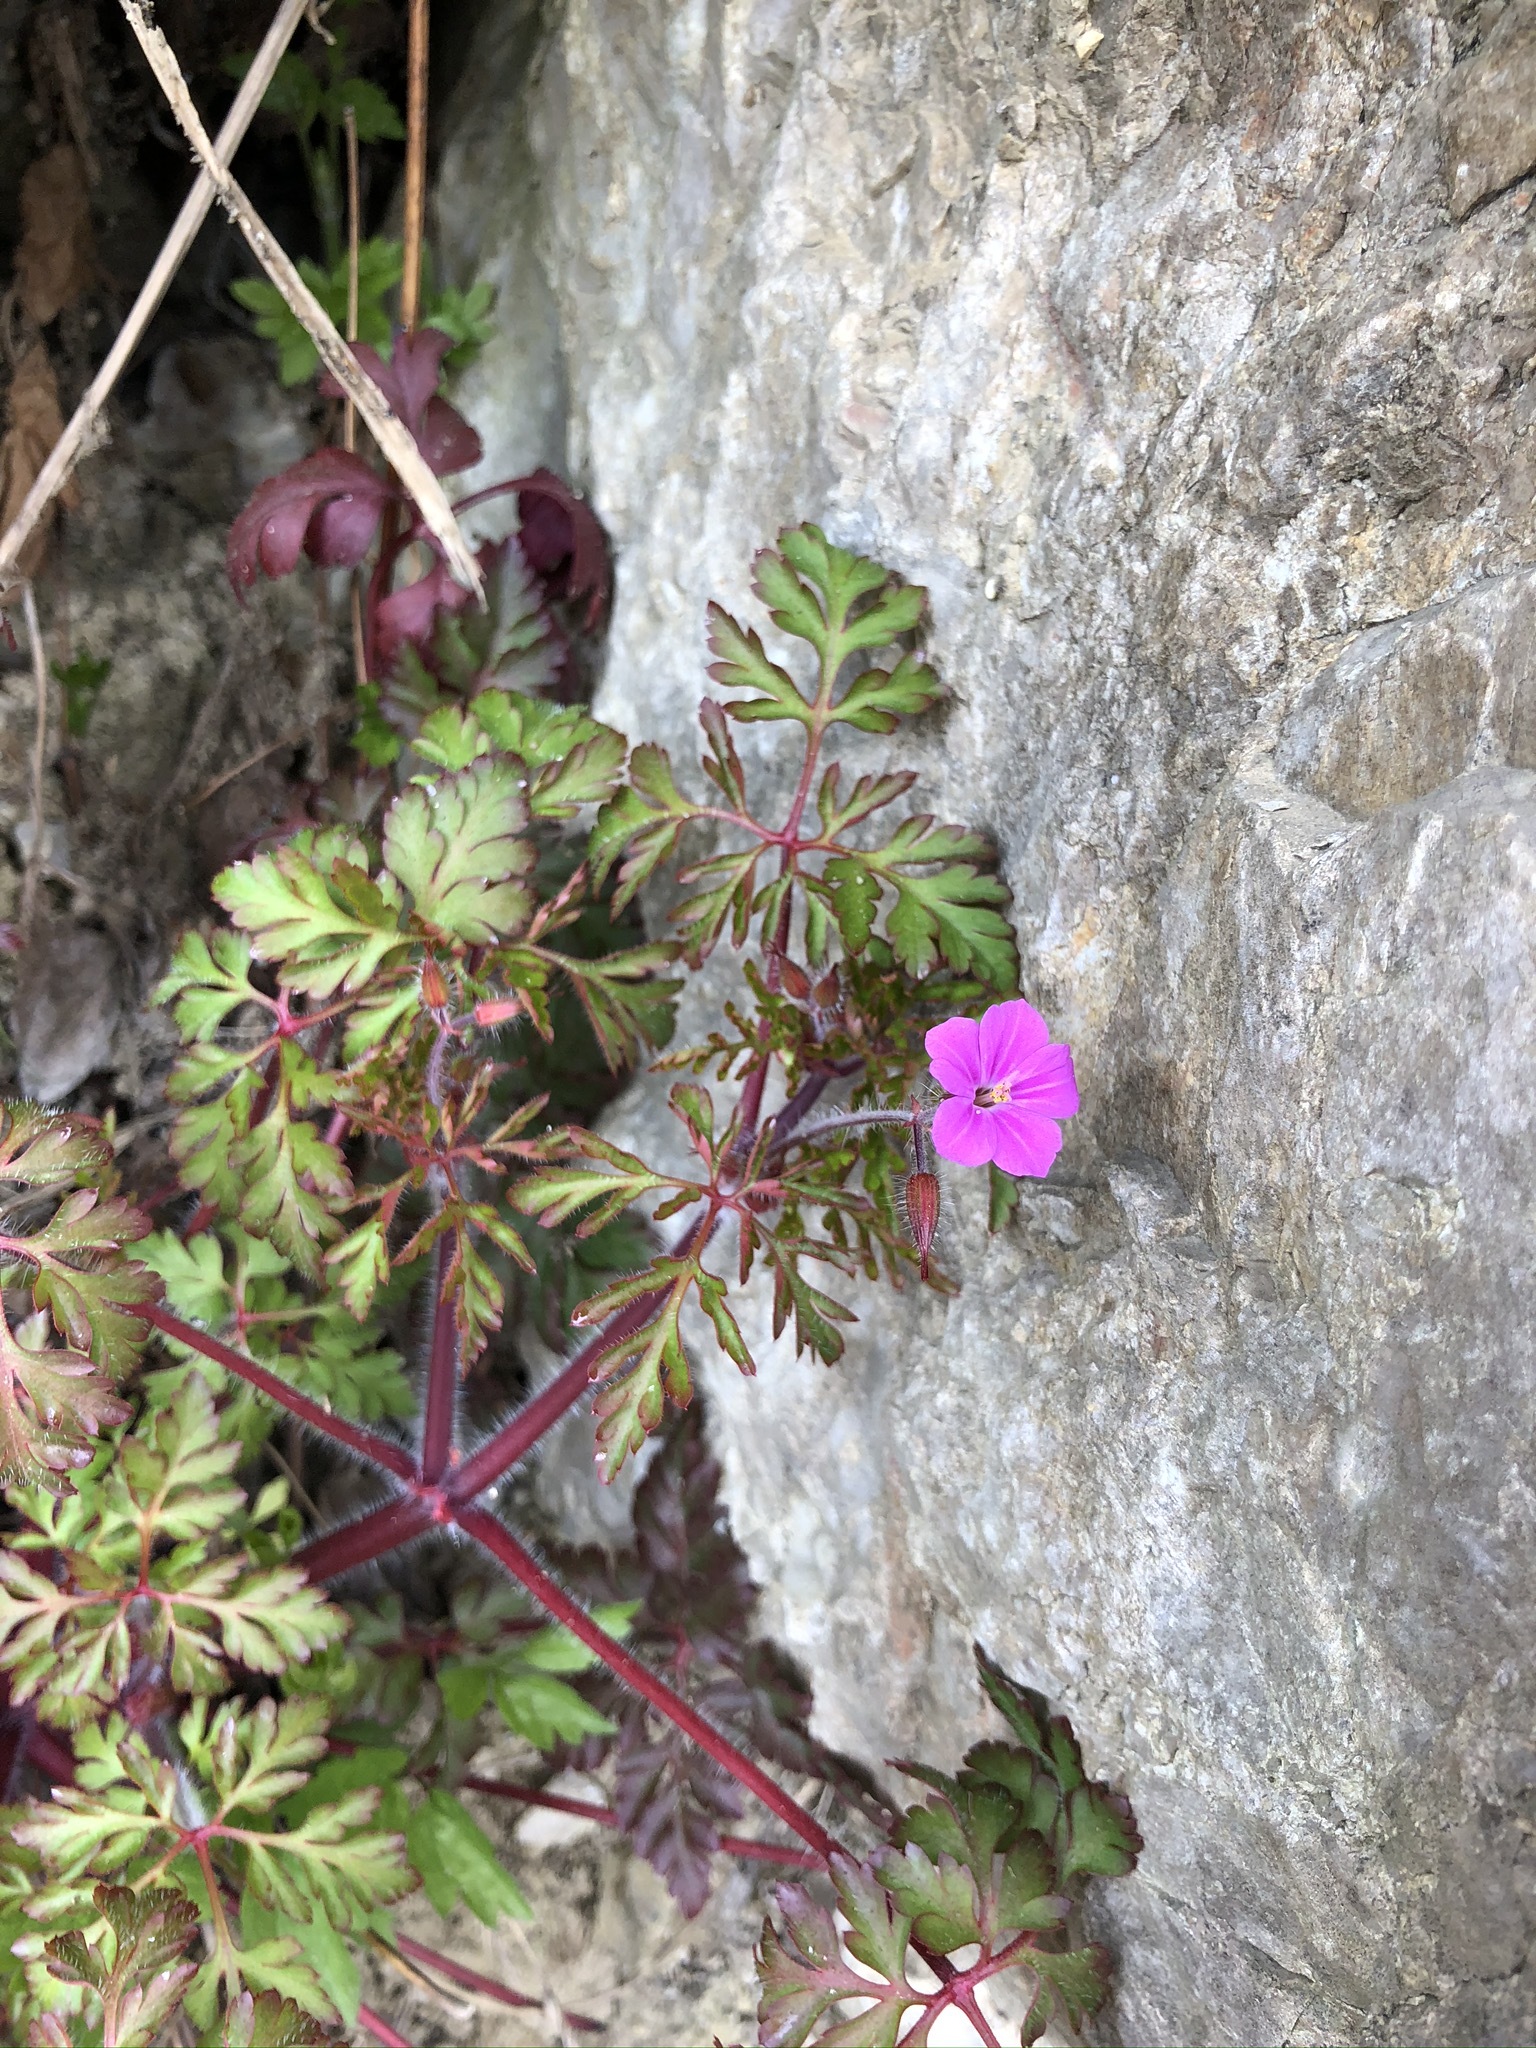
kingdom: Plantae
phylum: Tracheophyta
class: Magnoliopsida
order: Geraniales
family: Geraniaceae
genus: Geranium
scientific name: Geranium robertianum
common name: Herb-robert
